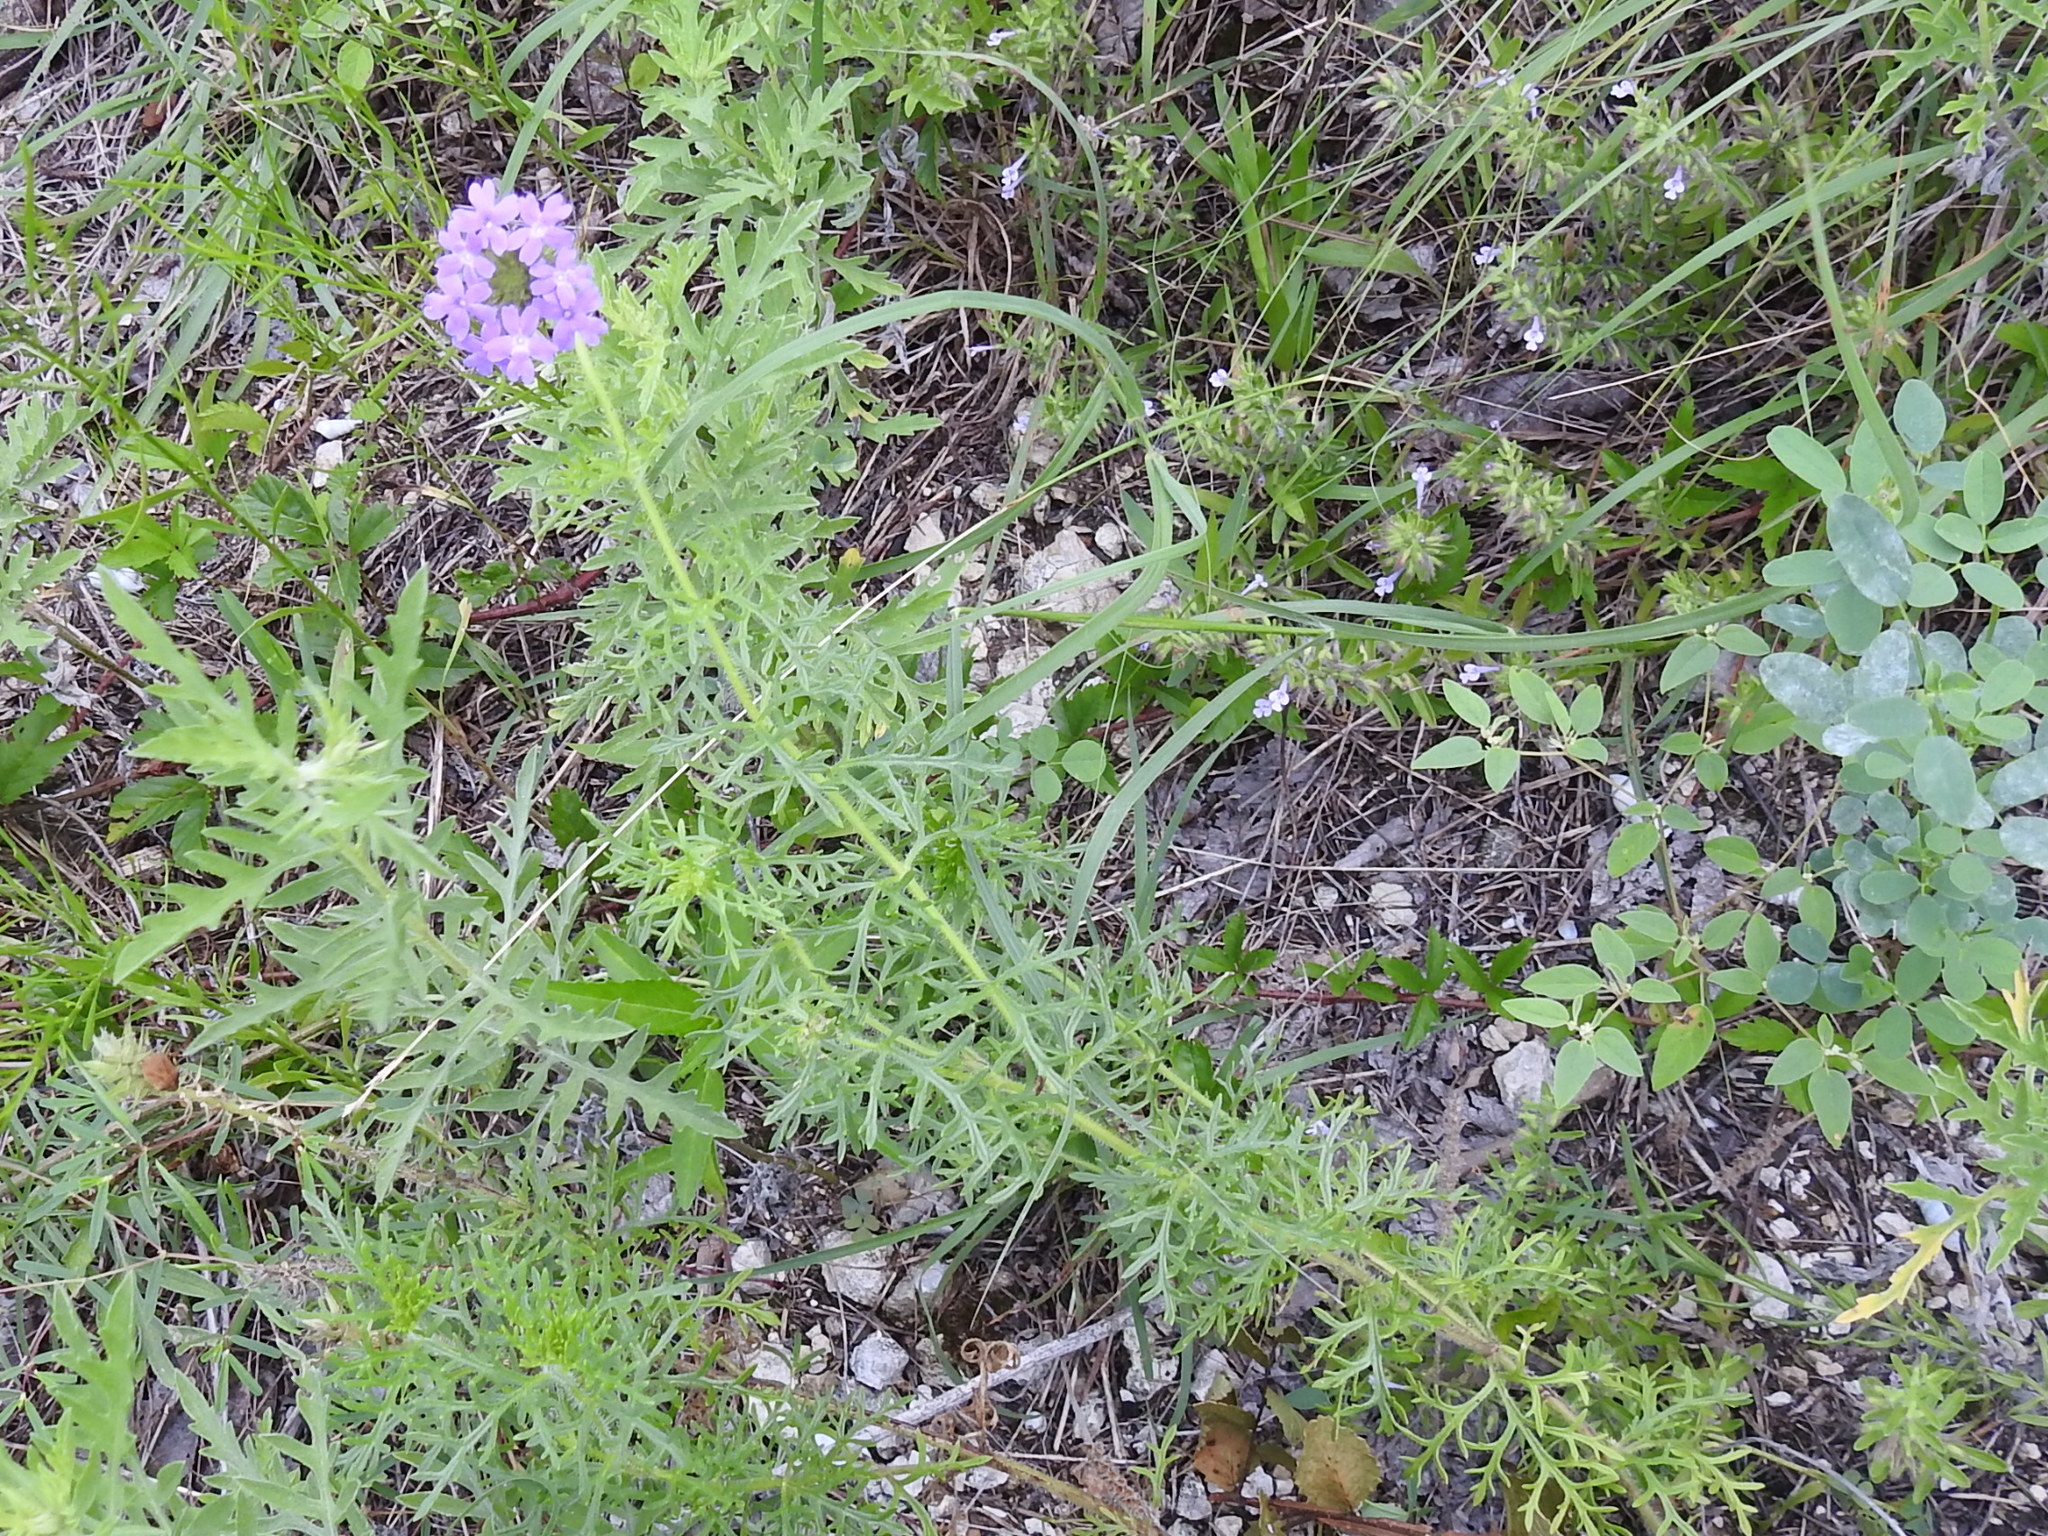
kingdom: Plantae
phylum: Tracheophyta
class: Magnoliopsida
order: Lamiales
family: Verbenaceae
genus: Verbena
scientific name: Verbena bipinnatifida
